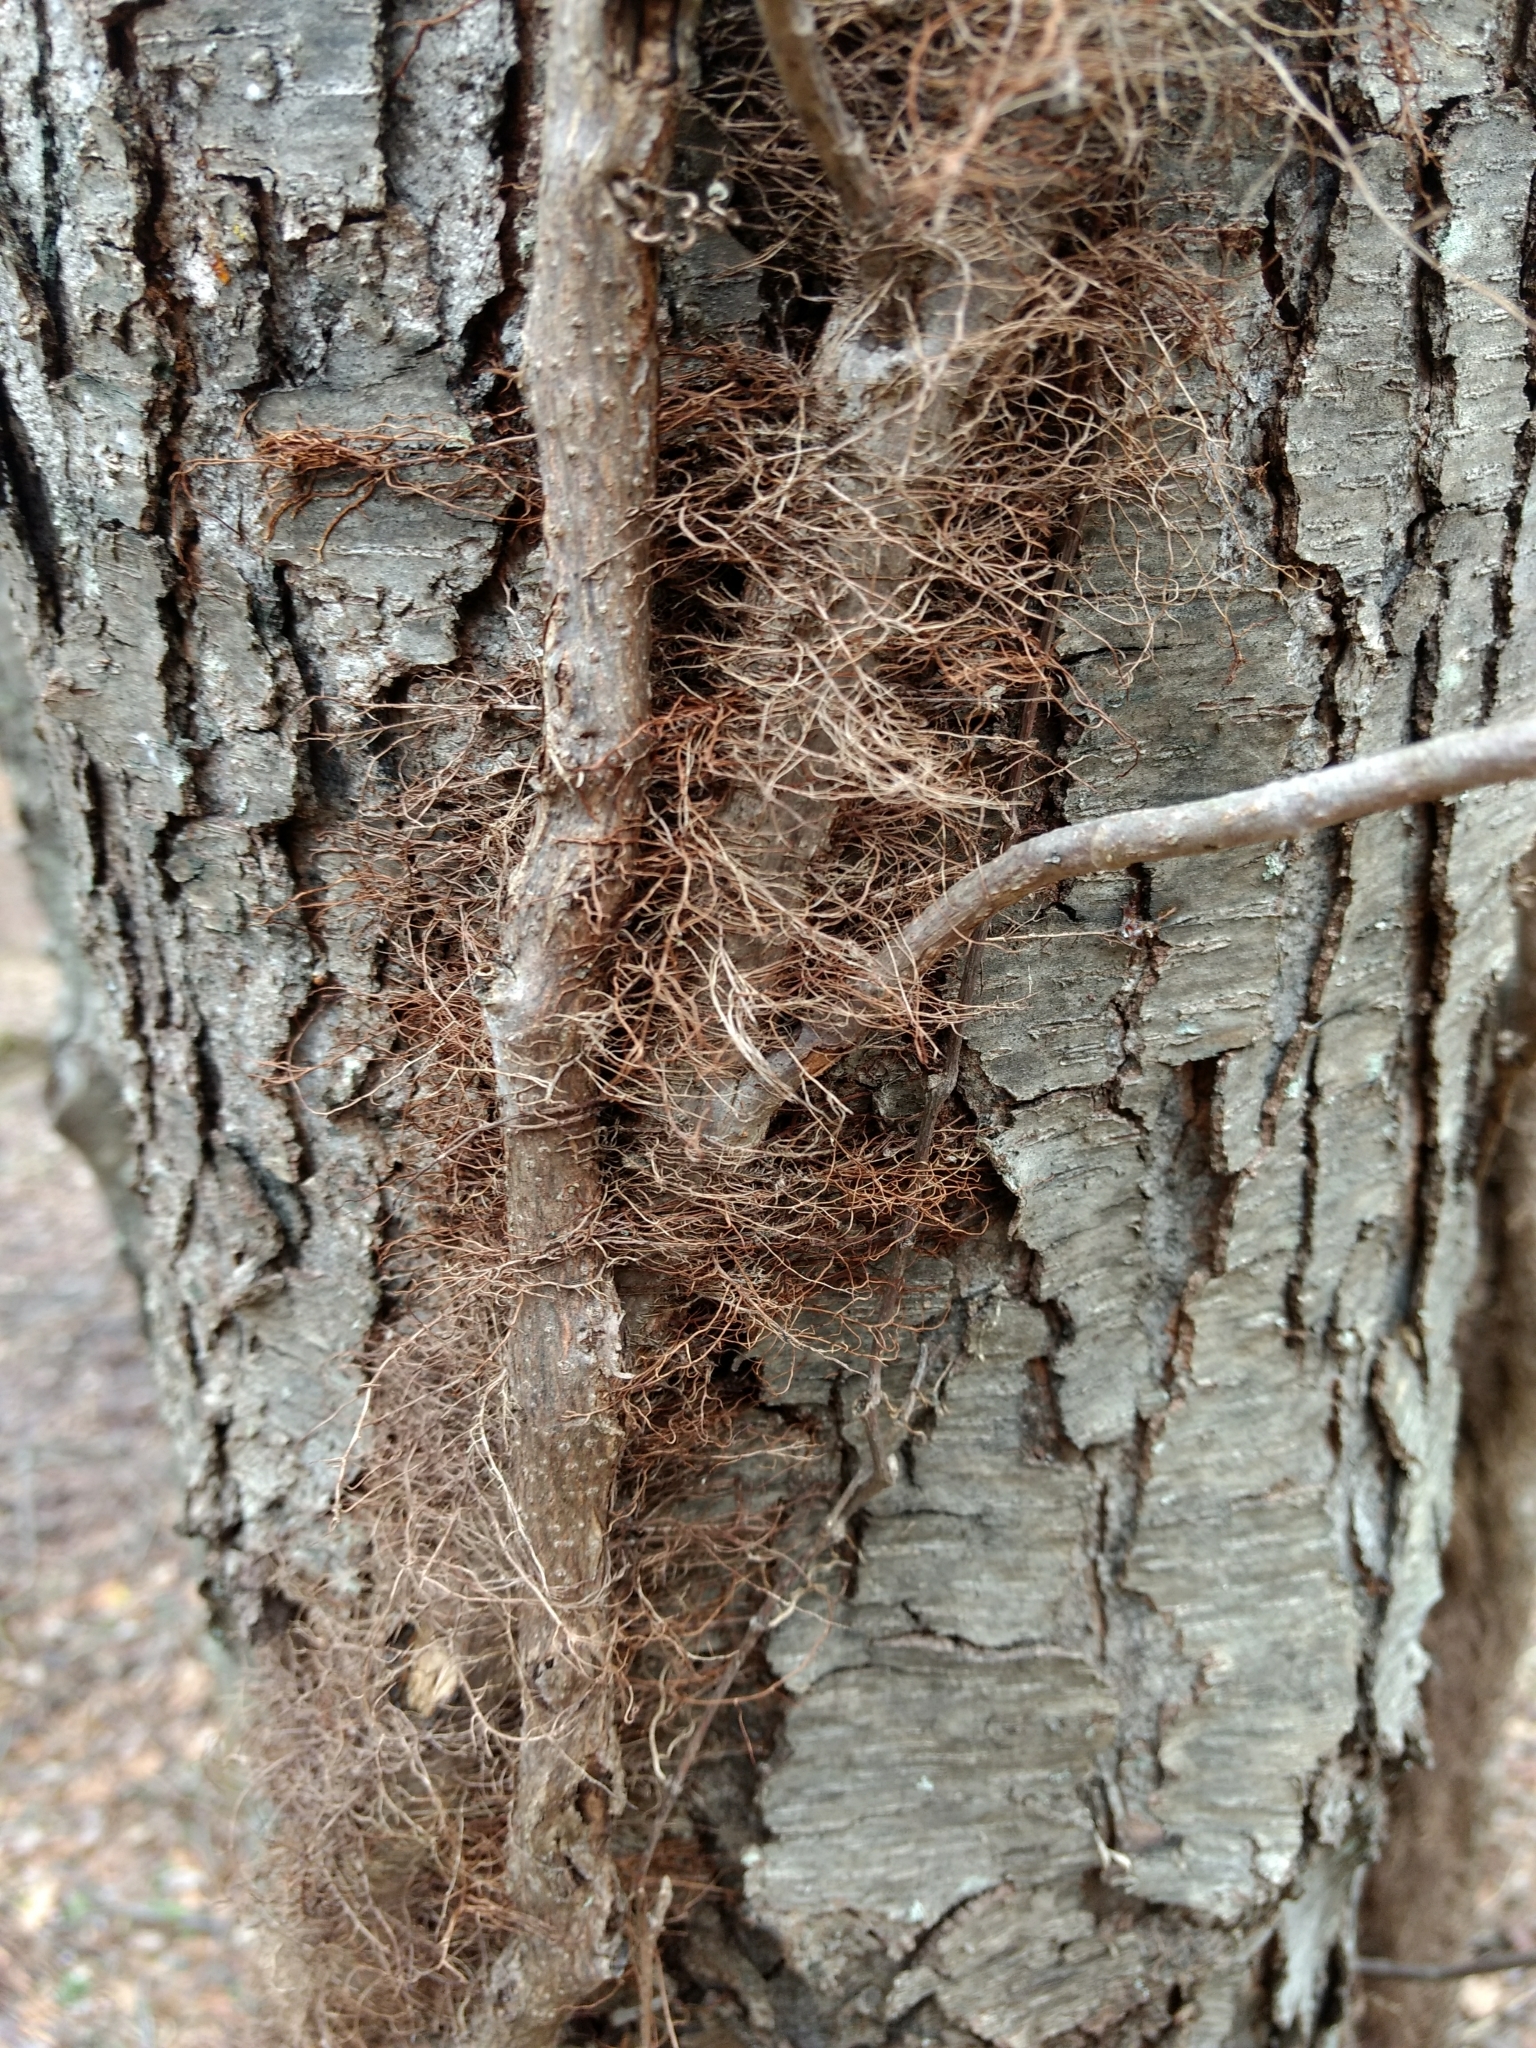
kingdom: Plantae
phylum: Tracheophyta
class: Magnoliopsida
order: Sapindales
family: Anacardiaceae
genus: Toxicodendron
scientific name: Toxicodendron radicans
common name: Poison ivy
